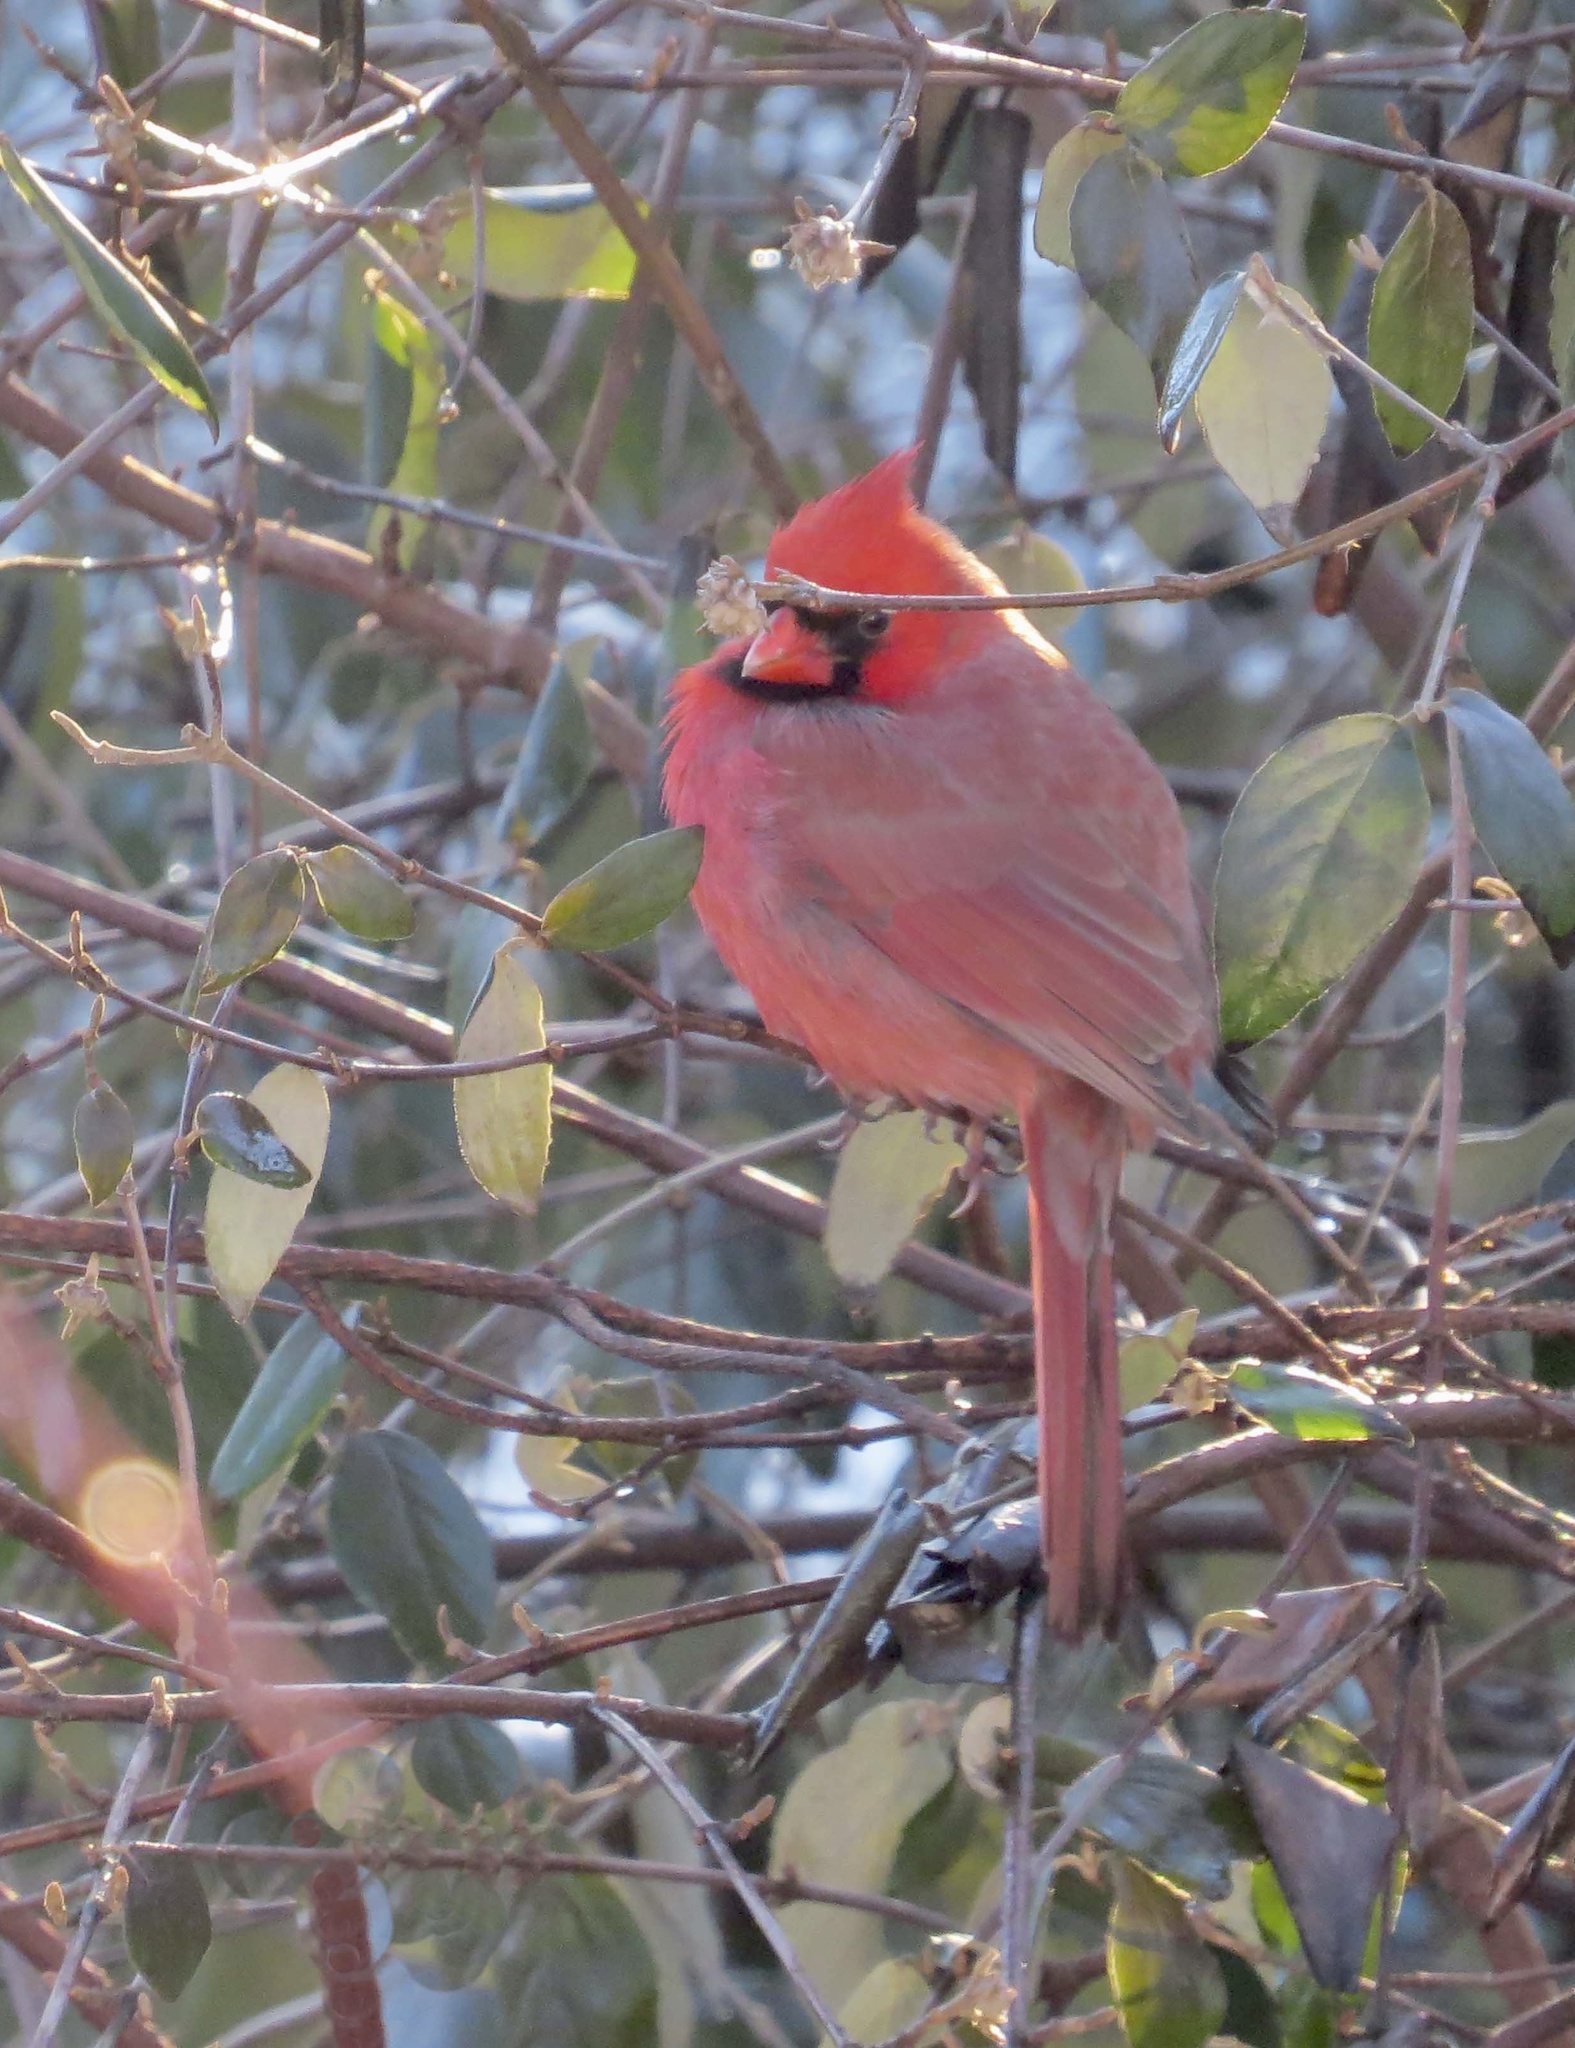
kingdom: Animalia
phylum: Chordata
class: Aves
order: Passeriformes
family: Cardinalidae
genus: Cardinalis
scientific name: Cardinalis cardinalis
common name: Northern cardinal
